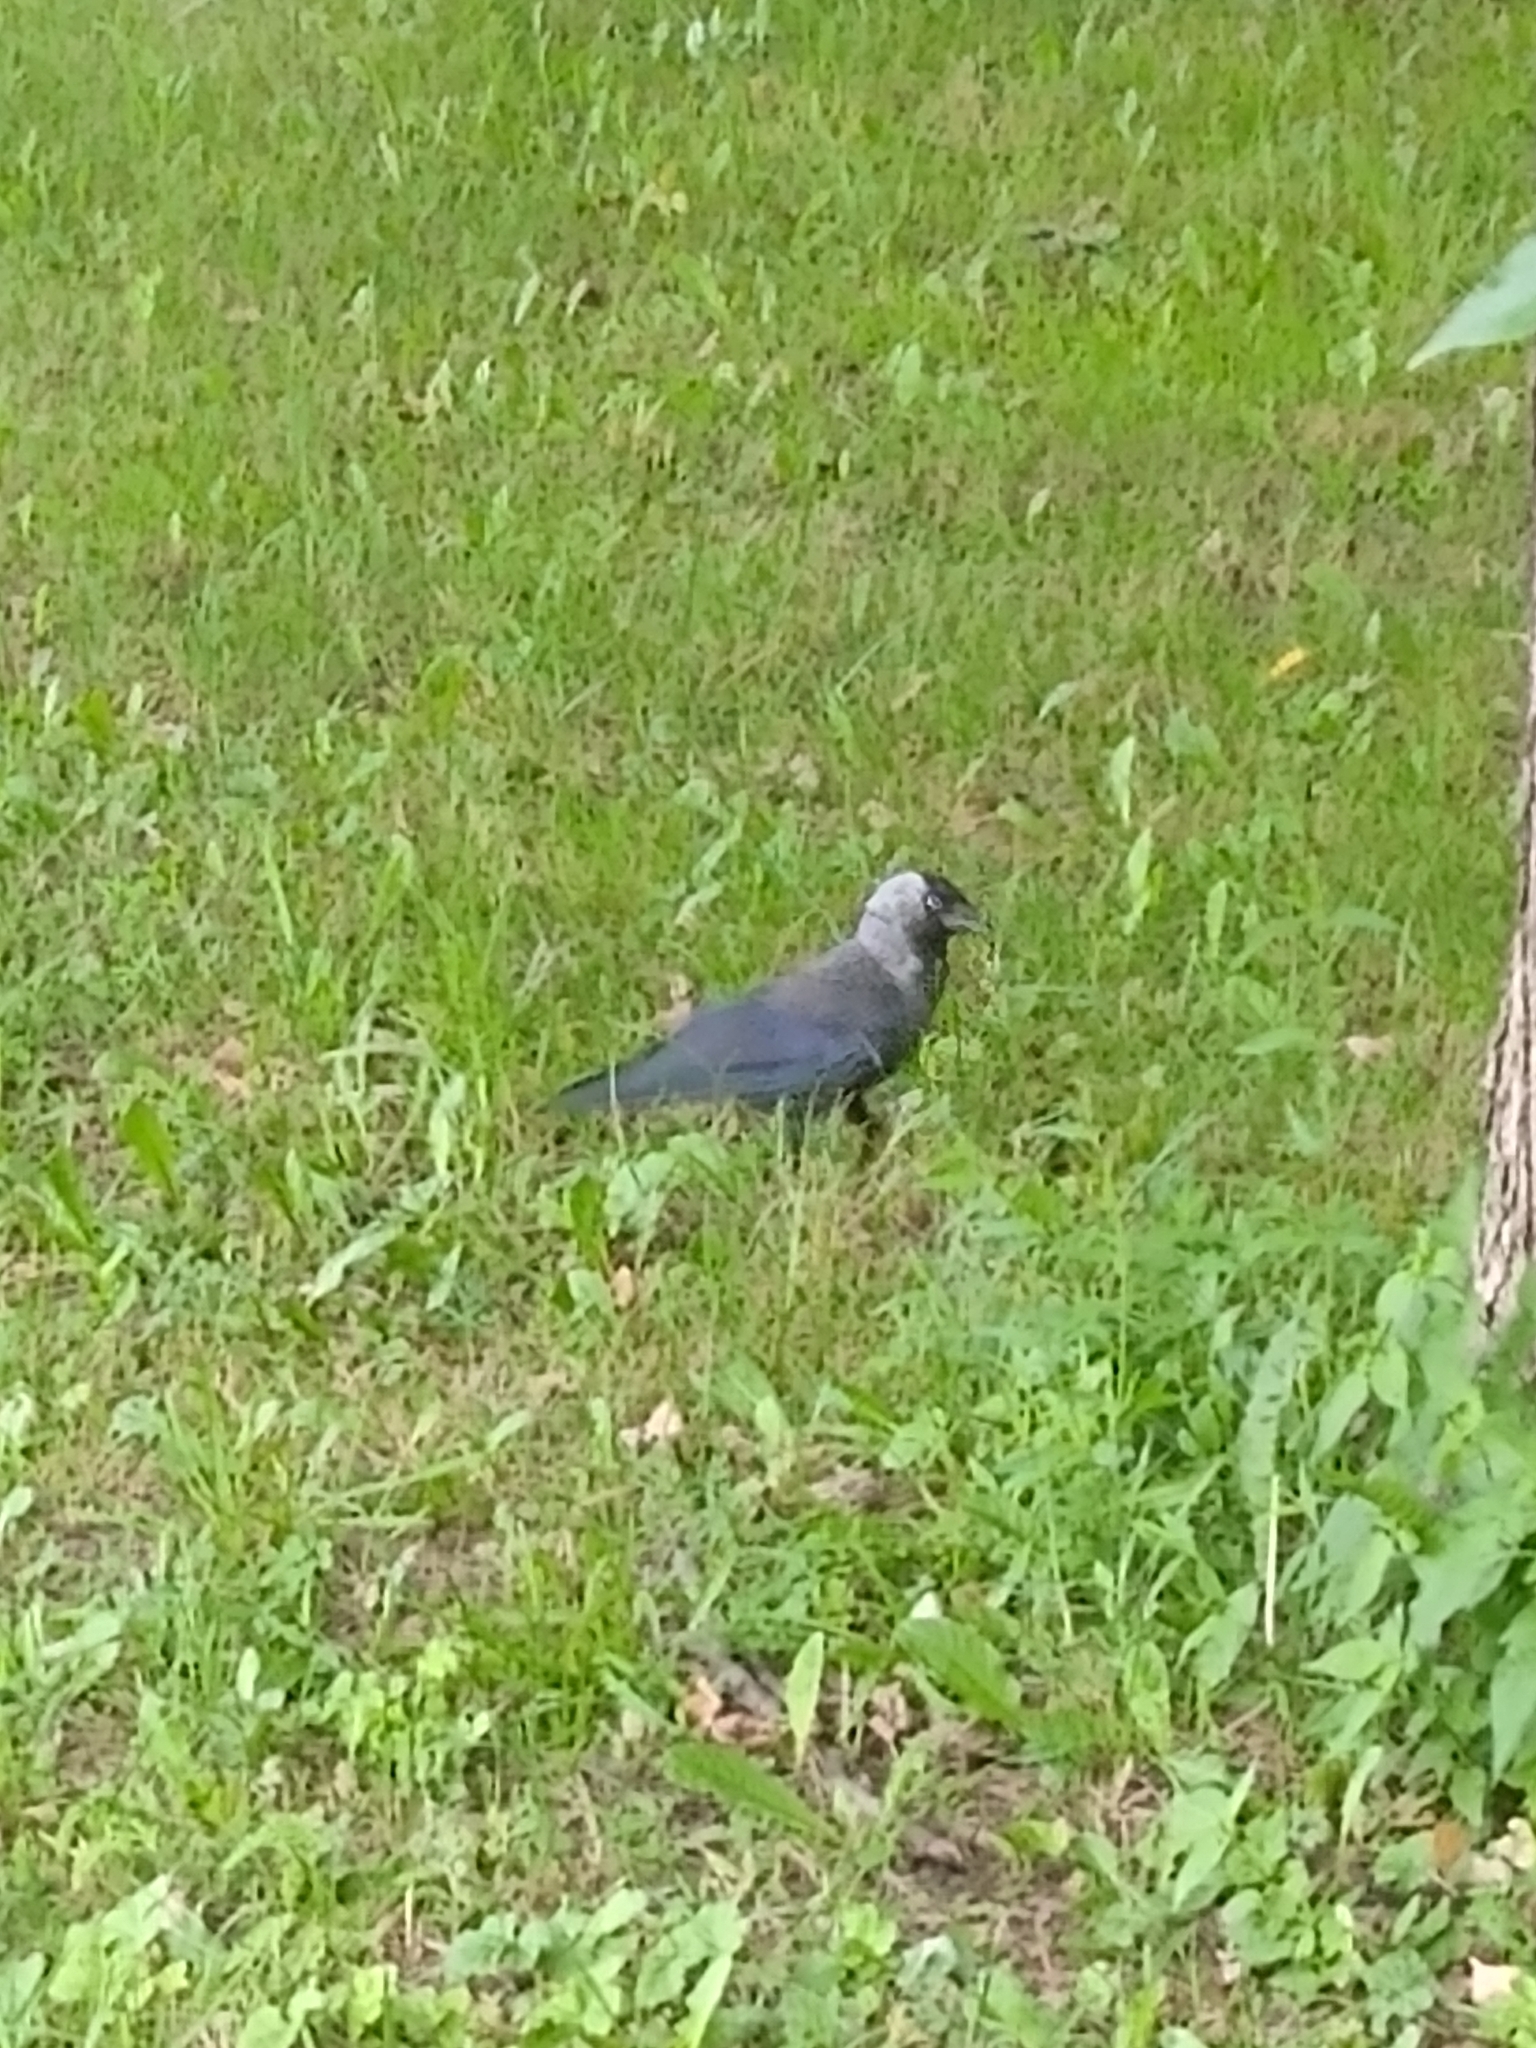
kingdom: Animalia
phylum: Chordata
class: Aves
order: Passeriformes
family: Corvidae
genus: Coloeus
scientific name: Coloeus monedula
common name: Western jackdaw
